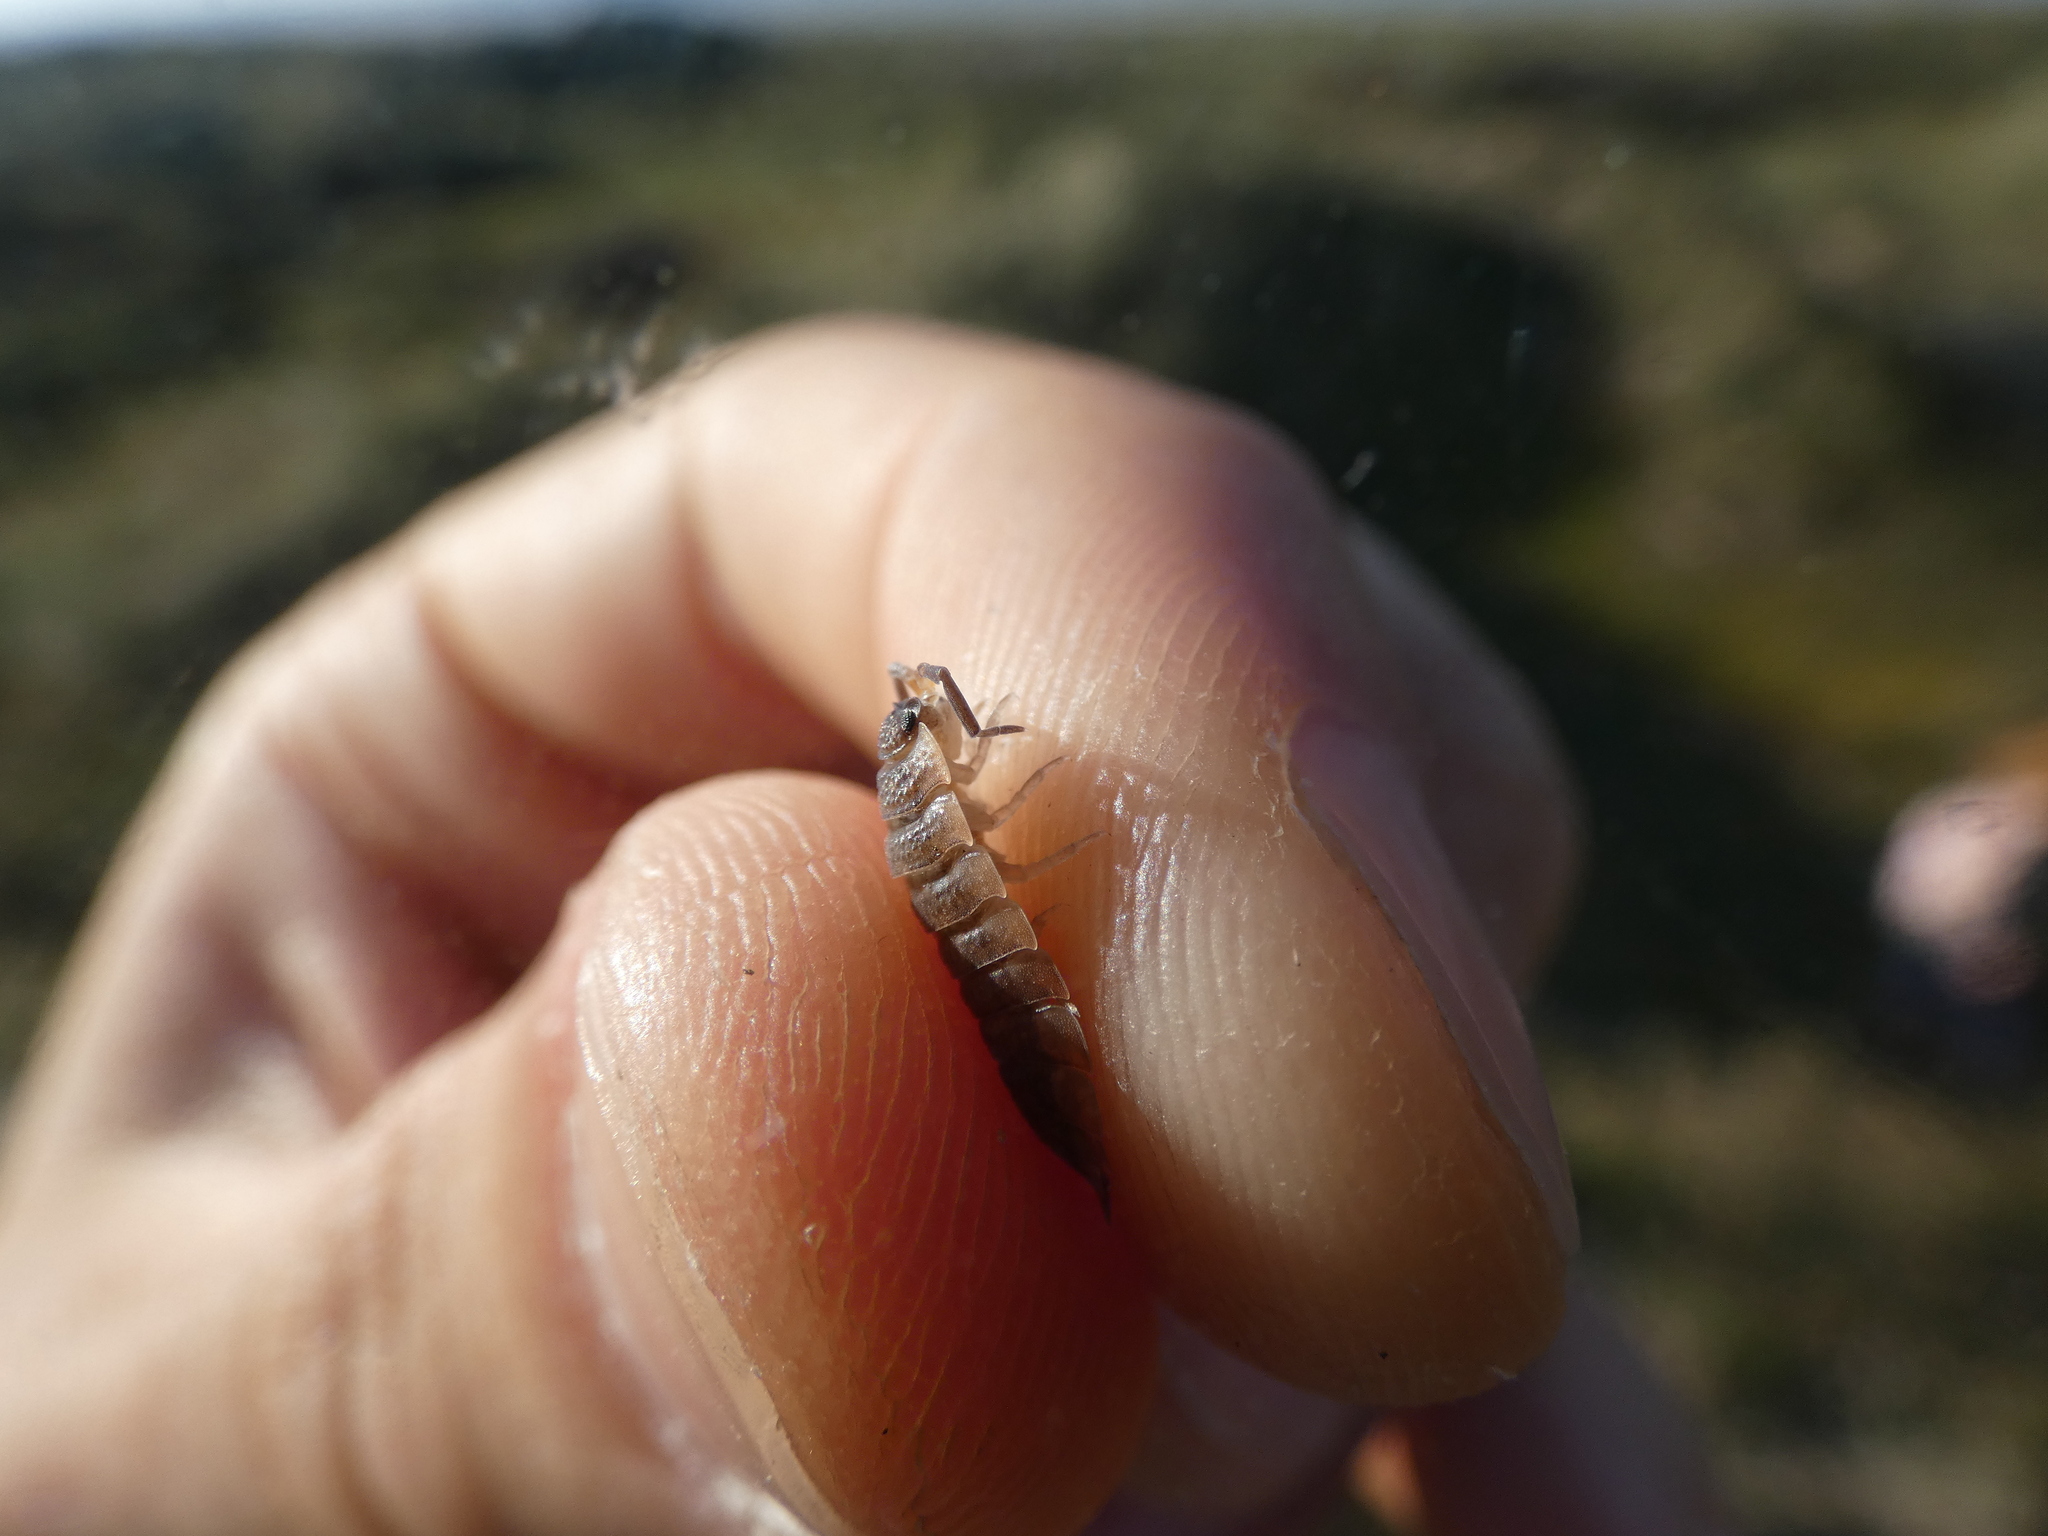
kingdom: Animalia
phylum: Arthropoda
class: Malacostraca
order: Isopoda
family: Porcellionidae
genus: Porcellio
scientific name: Porcellio scaber
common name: Common rough woodlouse
